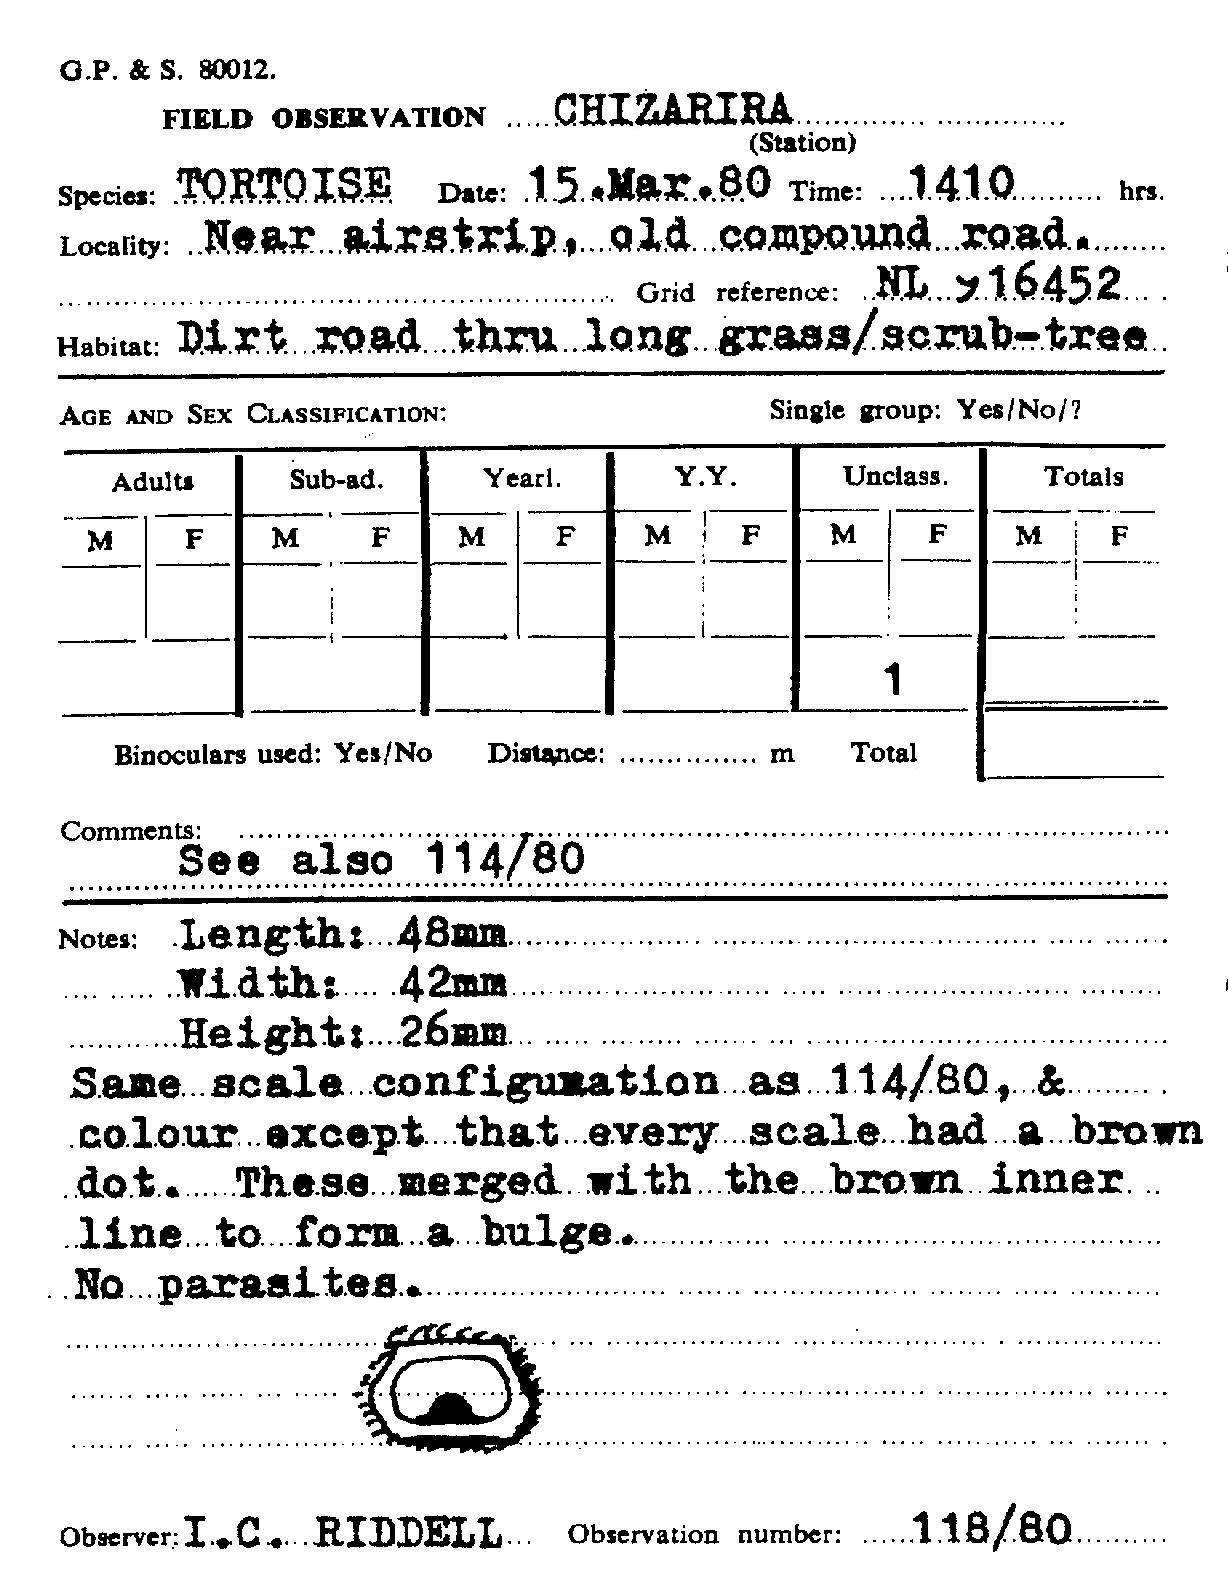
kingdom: Animalia
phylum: Chordata
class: Testudines
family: Testudinidae
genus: Stigmochelys
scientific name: Stigmochelys pardalis
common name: Leopard tortoise
